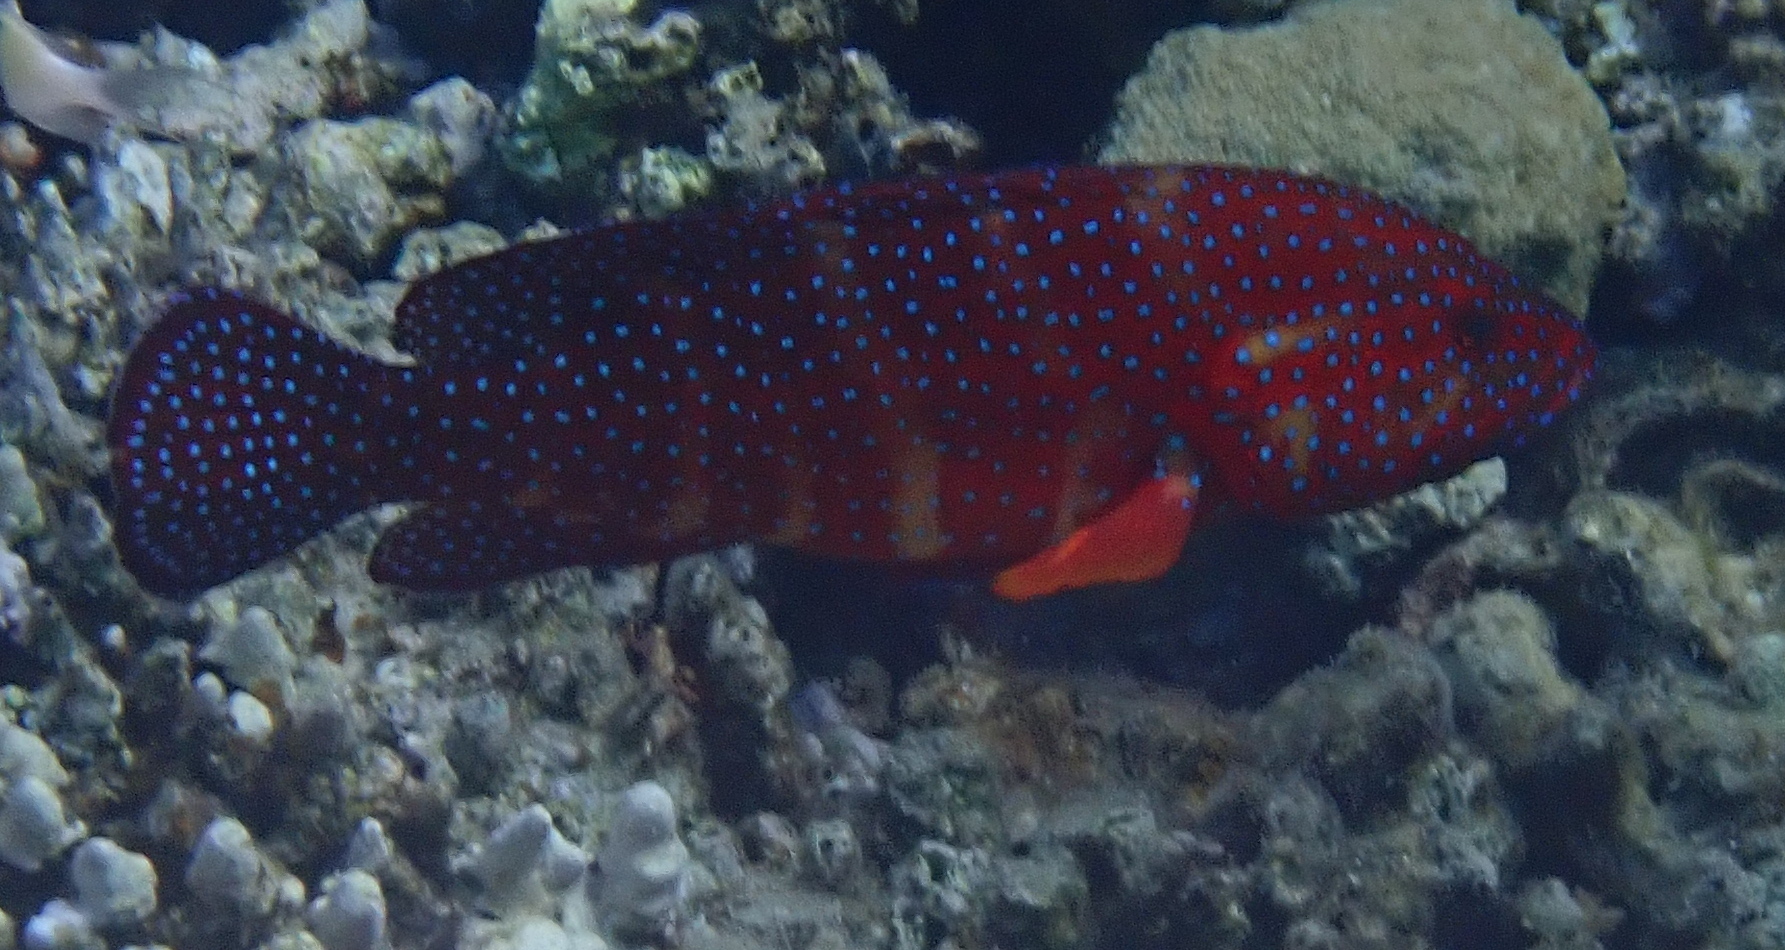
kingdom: Animalia
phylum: Chordata
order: Perciformes
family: Serranidae
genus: Cephalopholis
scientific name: Cephalopholis miniata
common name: Coral hind
